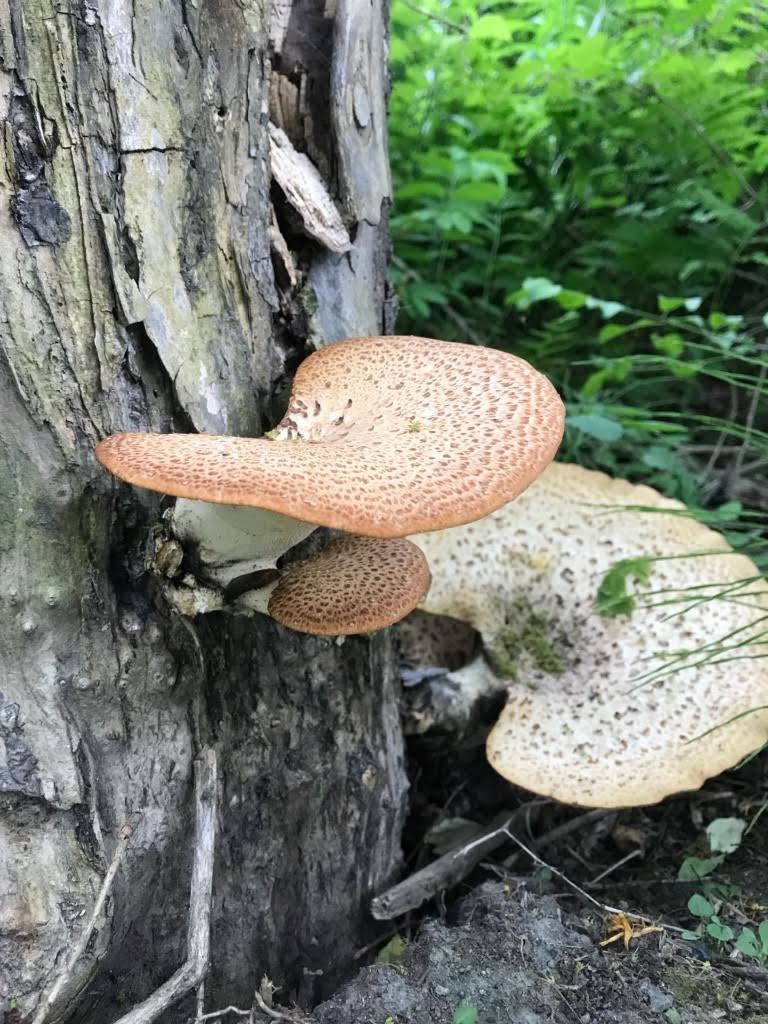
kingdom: Fungi
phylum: Basidiomycota
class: Agaricomycetes
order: Polyporales
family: Polyporaceae
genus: Cerioporus
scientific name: Cerioporus squamosus
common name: Dryad's saddle
